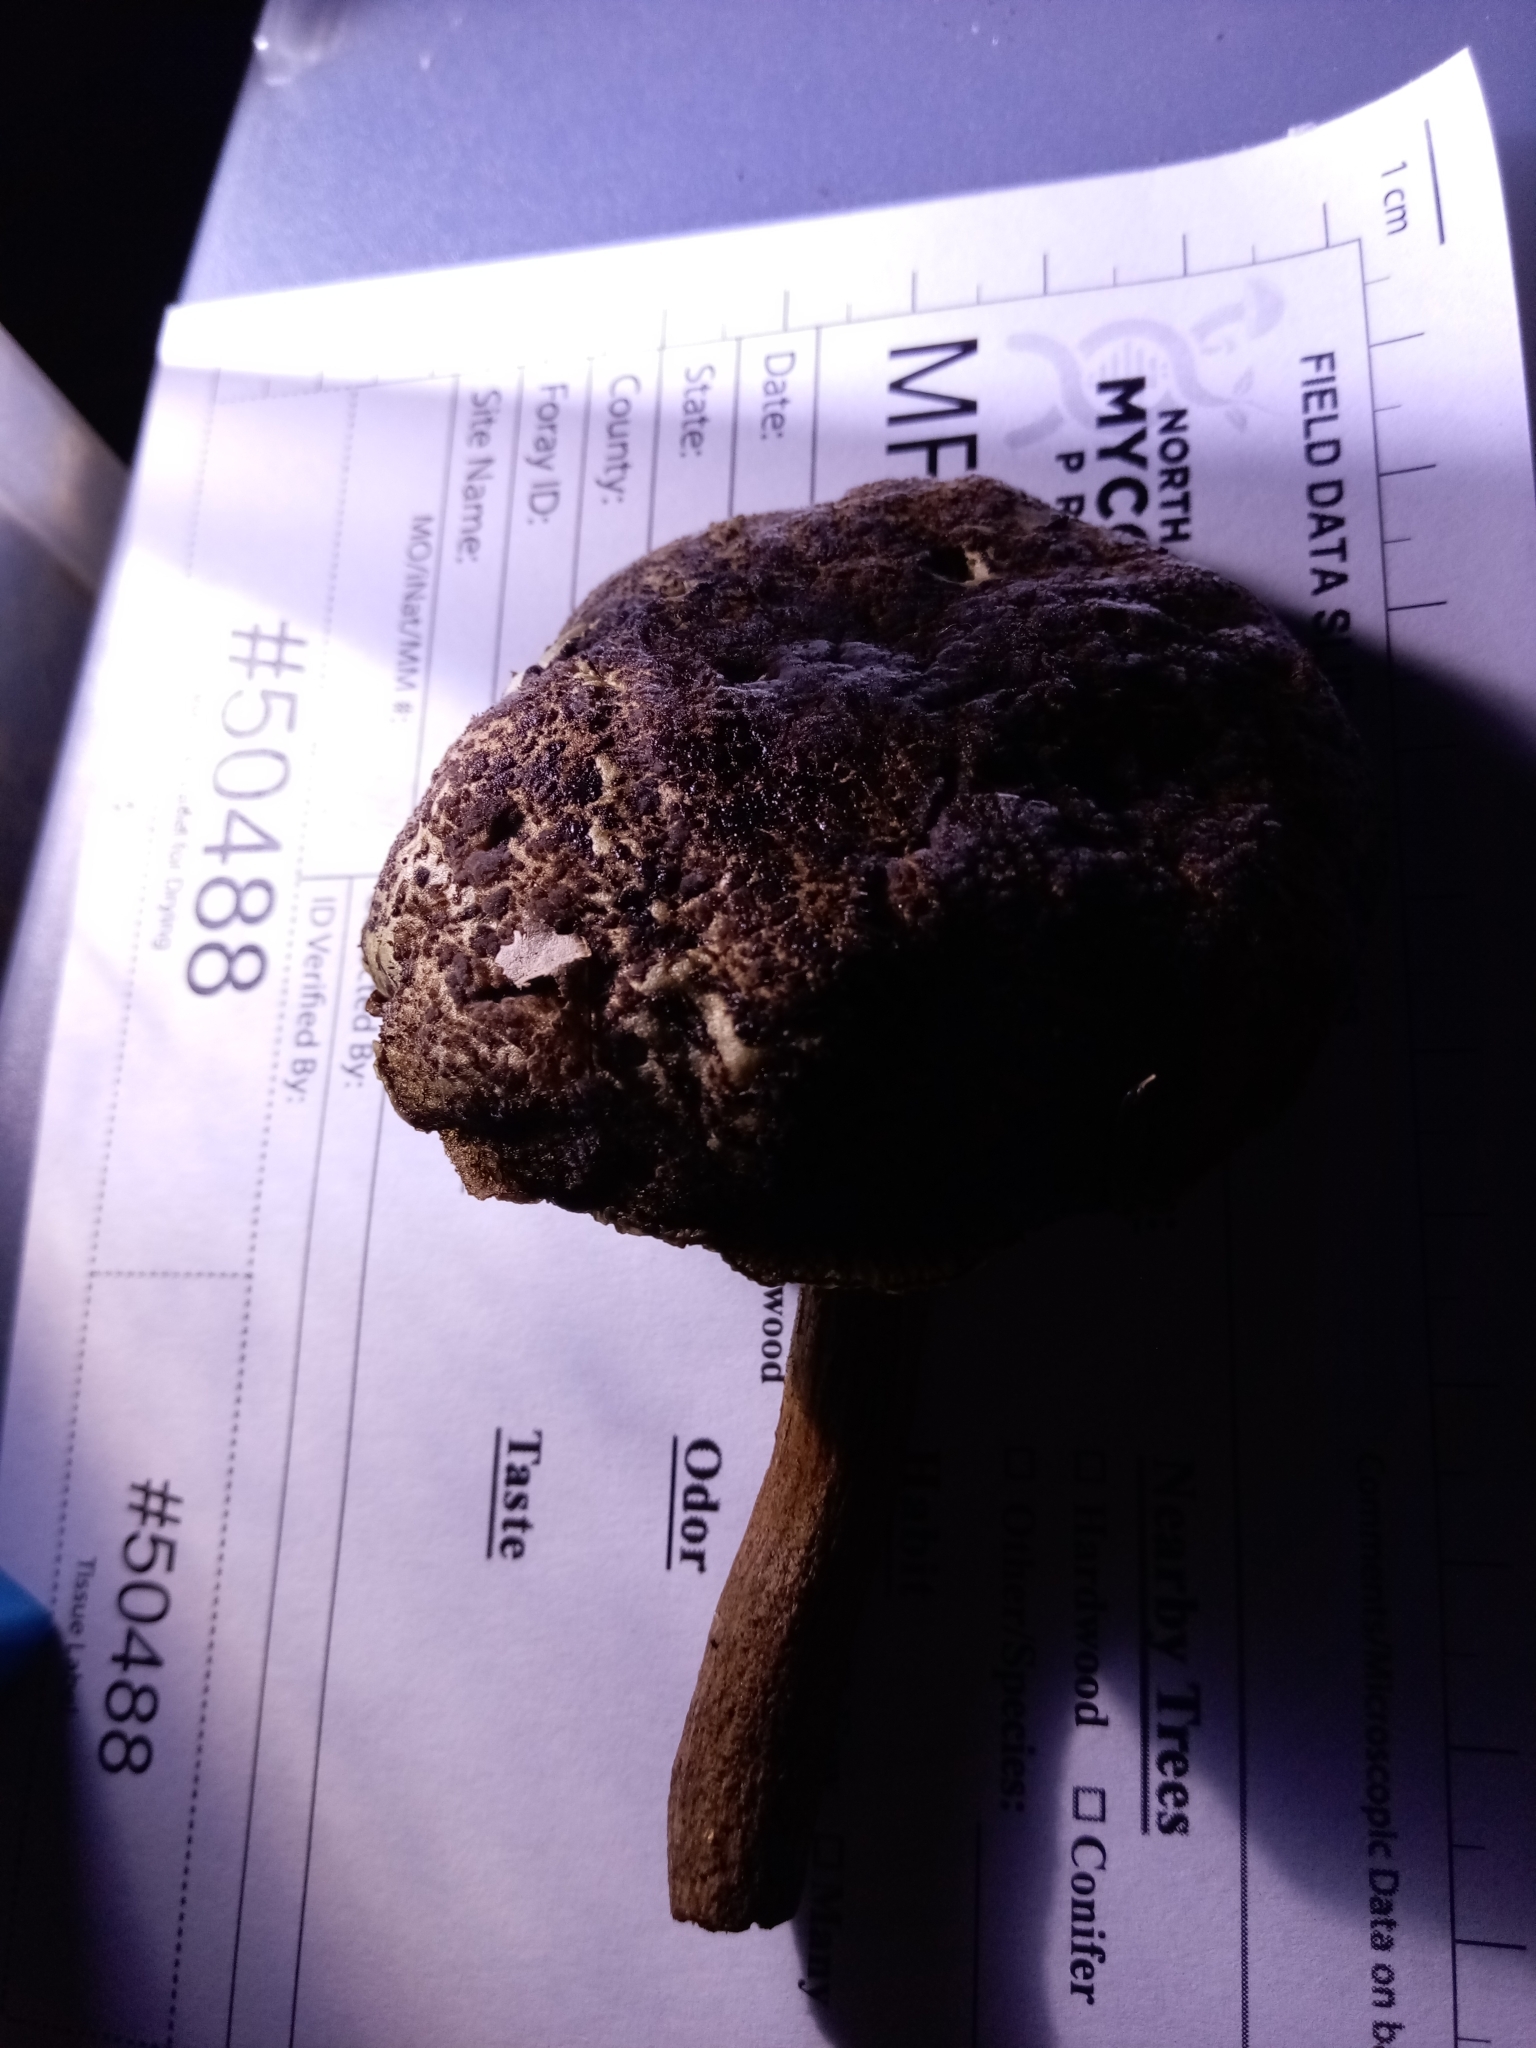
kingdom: Fungi
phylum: Basidiomycota
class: Agaricomycetes
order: Boletales
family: Boletaceae
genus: Boletellus
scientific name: Boletellus chrysenteroides
